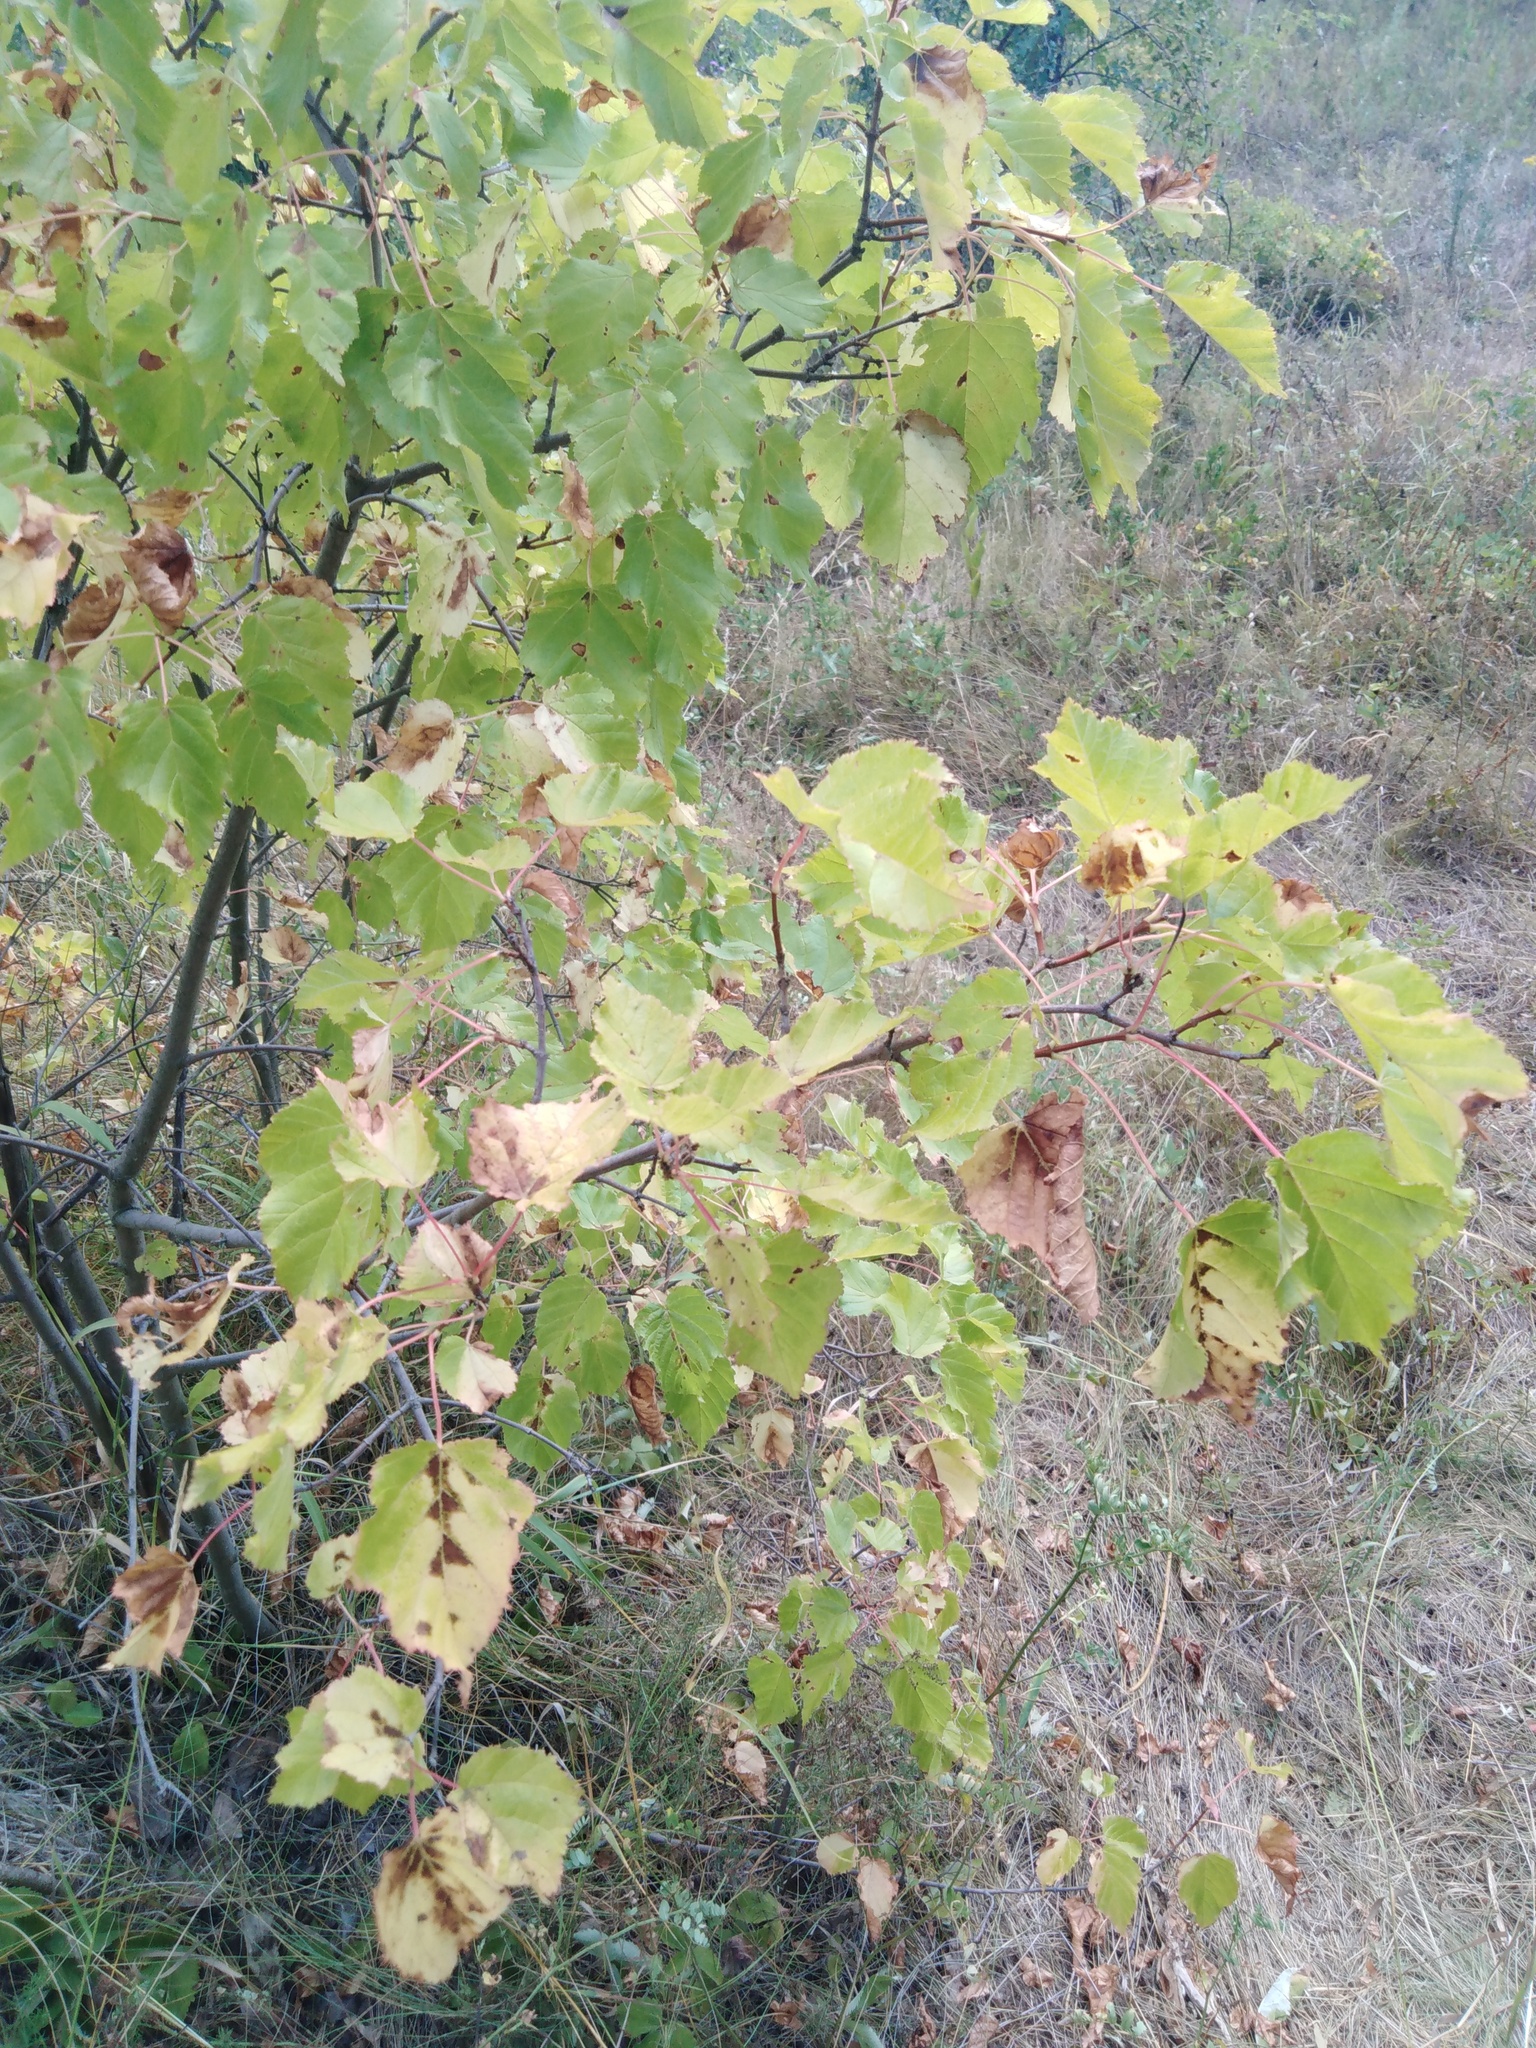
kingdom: Plantae
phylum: Tracheophyta
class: Magnoliopsida
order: Sapindales
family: Sapindaceae
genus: Acer
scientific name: Acer tataricum
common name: Tartar maple
